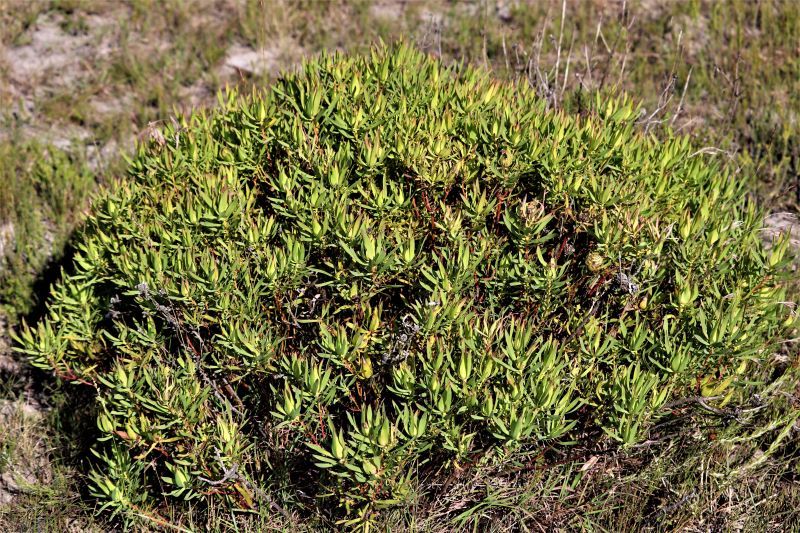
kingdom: Plantae
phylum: Tracheophyta
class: Magnoliopsida
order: Proteales
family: Proteaceae
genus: Leucadendron
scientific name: Leucadendron salignum
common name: Common sunshine conebush
